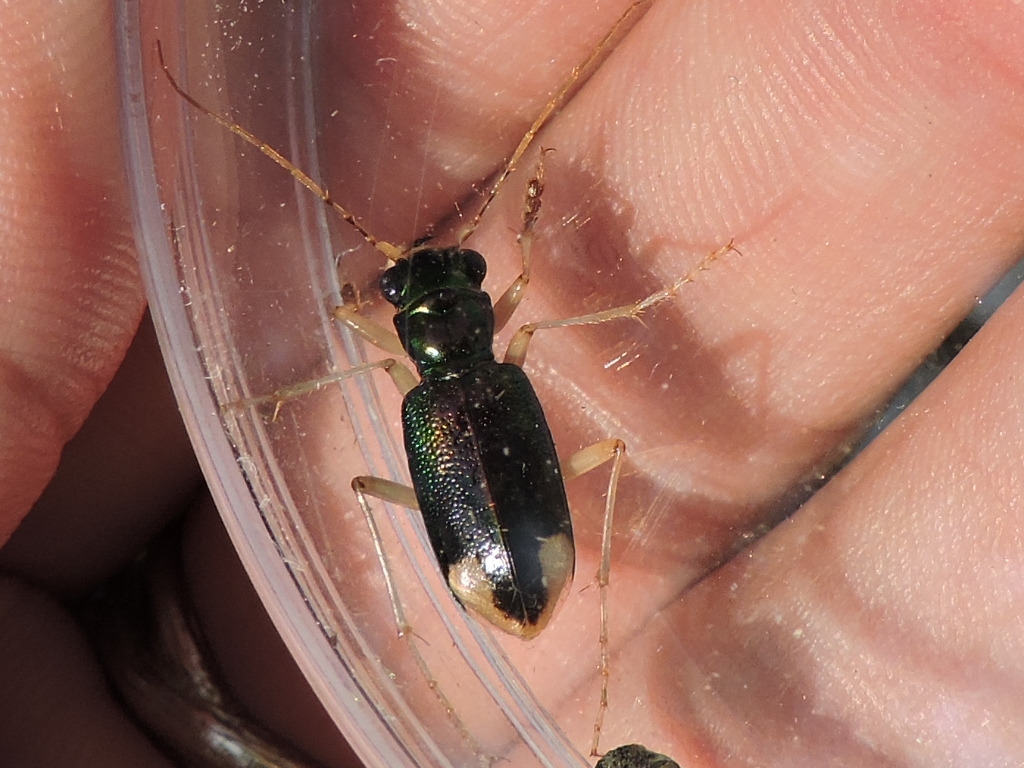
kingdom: Animalia
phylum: Arthropoda
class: Insecta
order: Coleoptera
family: Carabidae
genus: Tetracha
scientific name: Tetracha carolina
